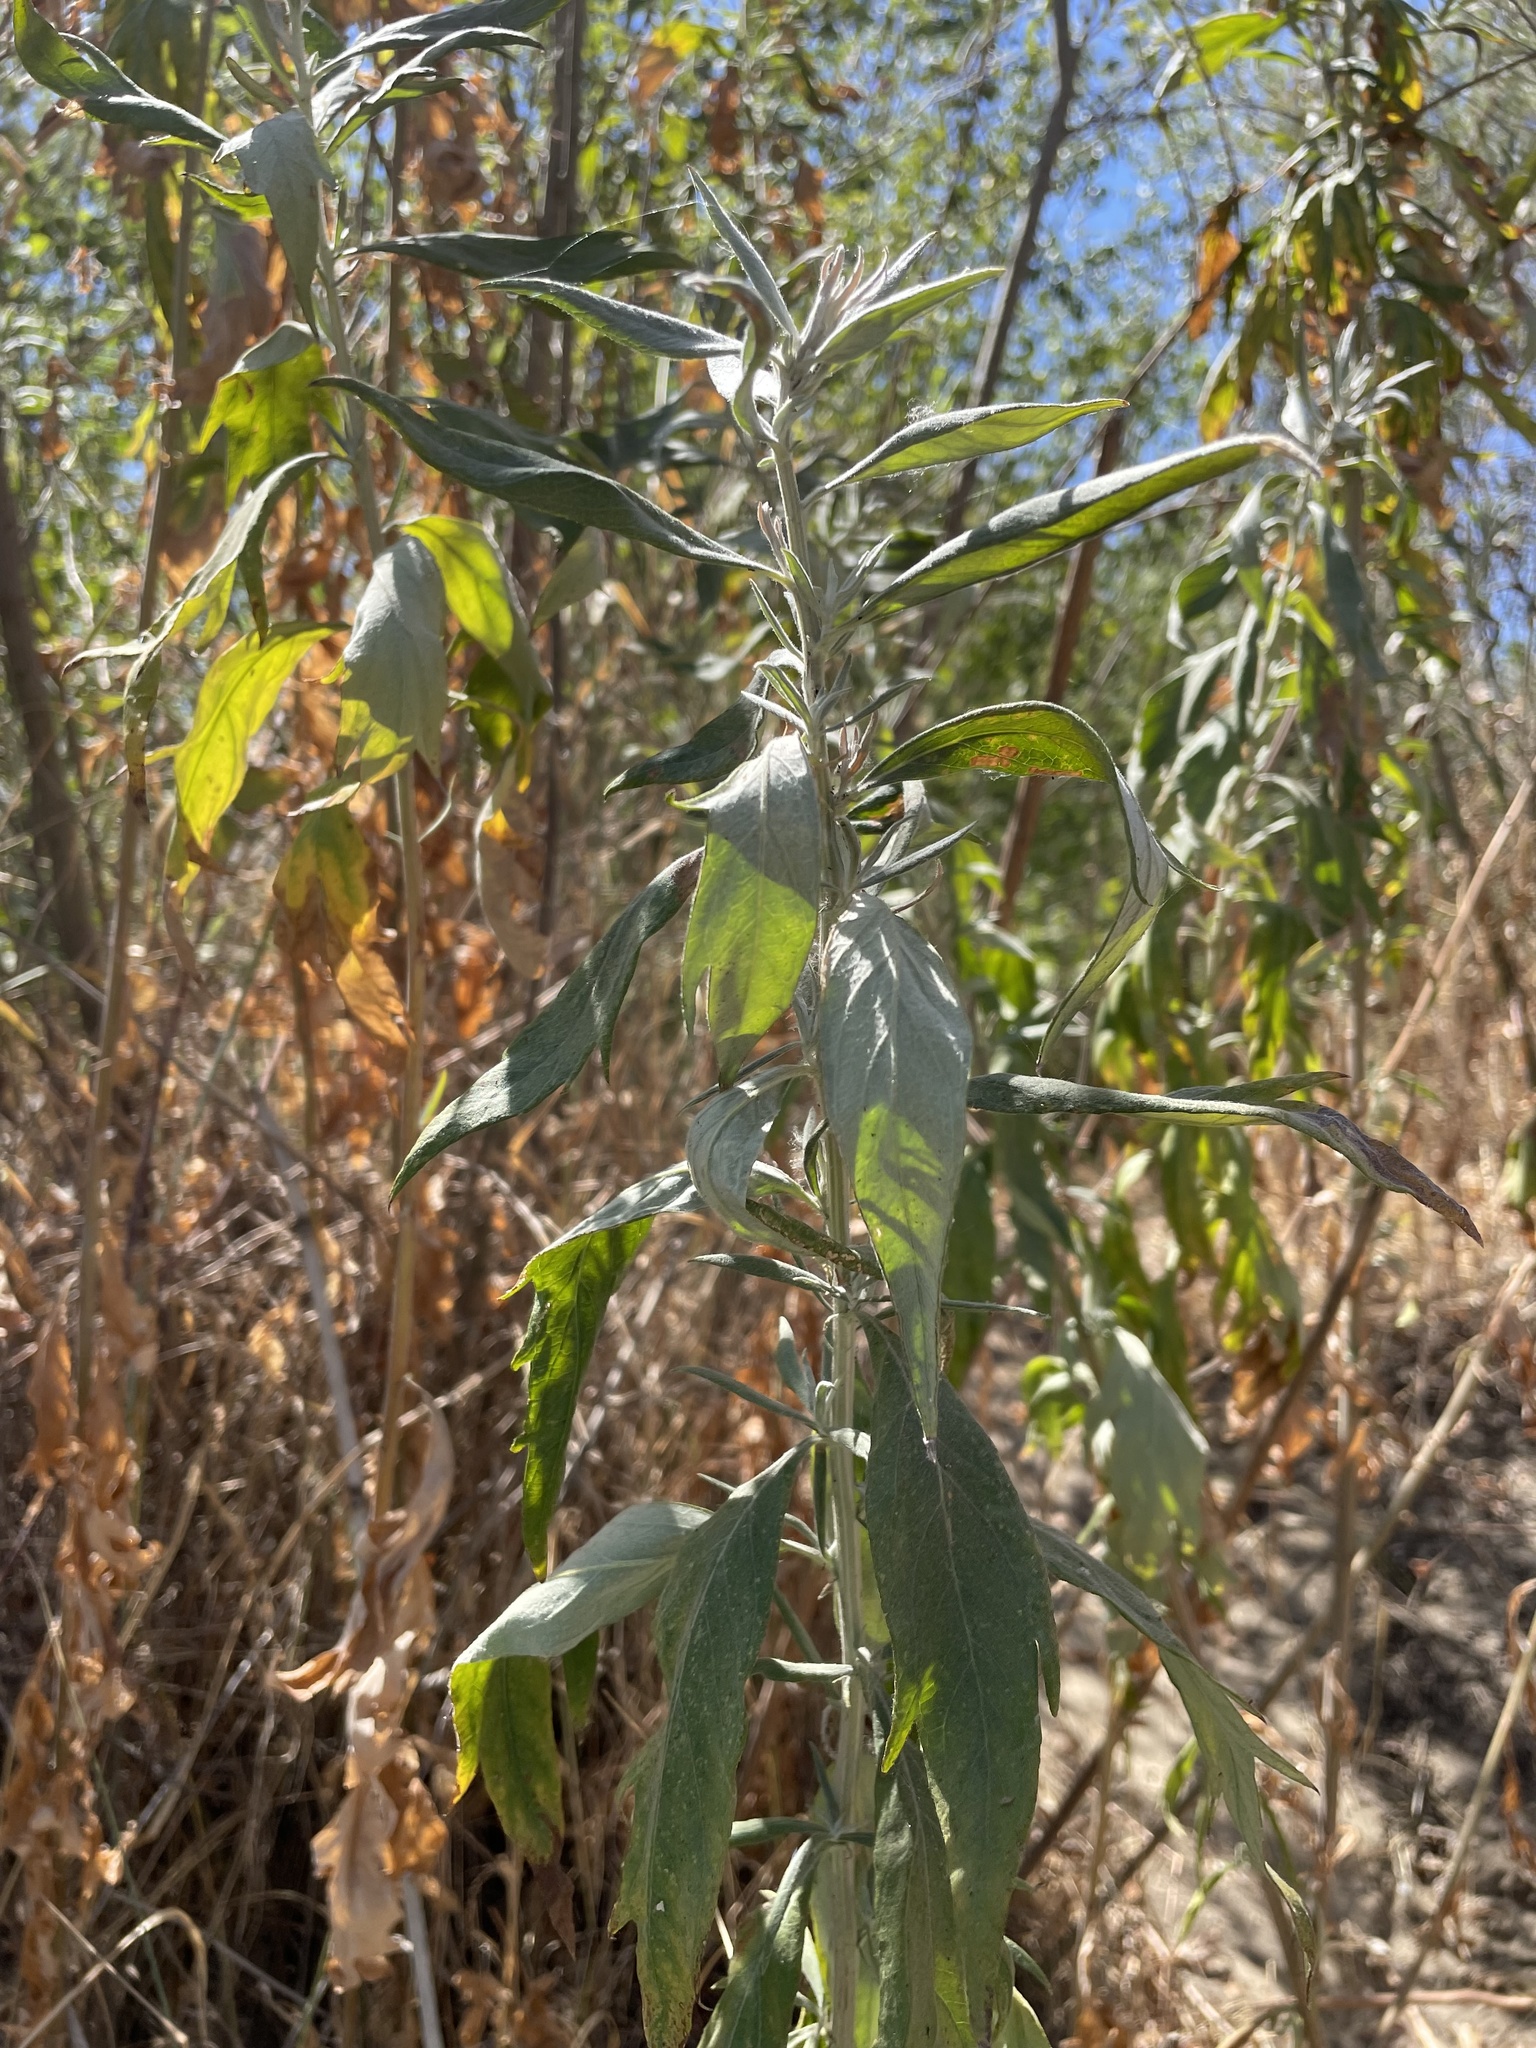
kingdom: Plantae
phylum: Tracheophyta
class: Magnoliopsida
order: Asterales
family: Asteraceae
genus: Artemisia
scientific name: Artemisia douglasiana
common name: Northwest mugwort
